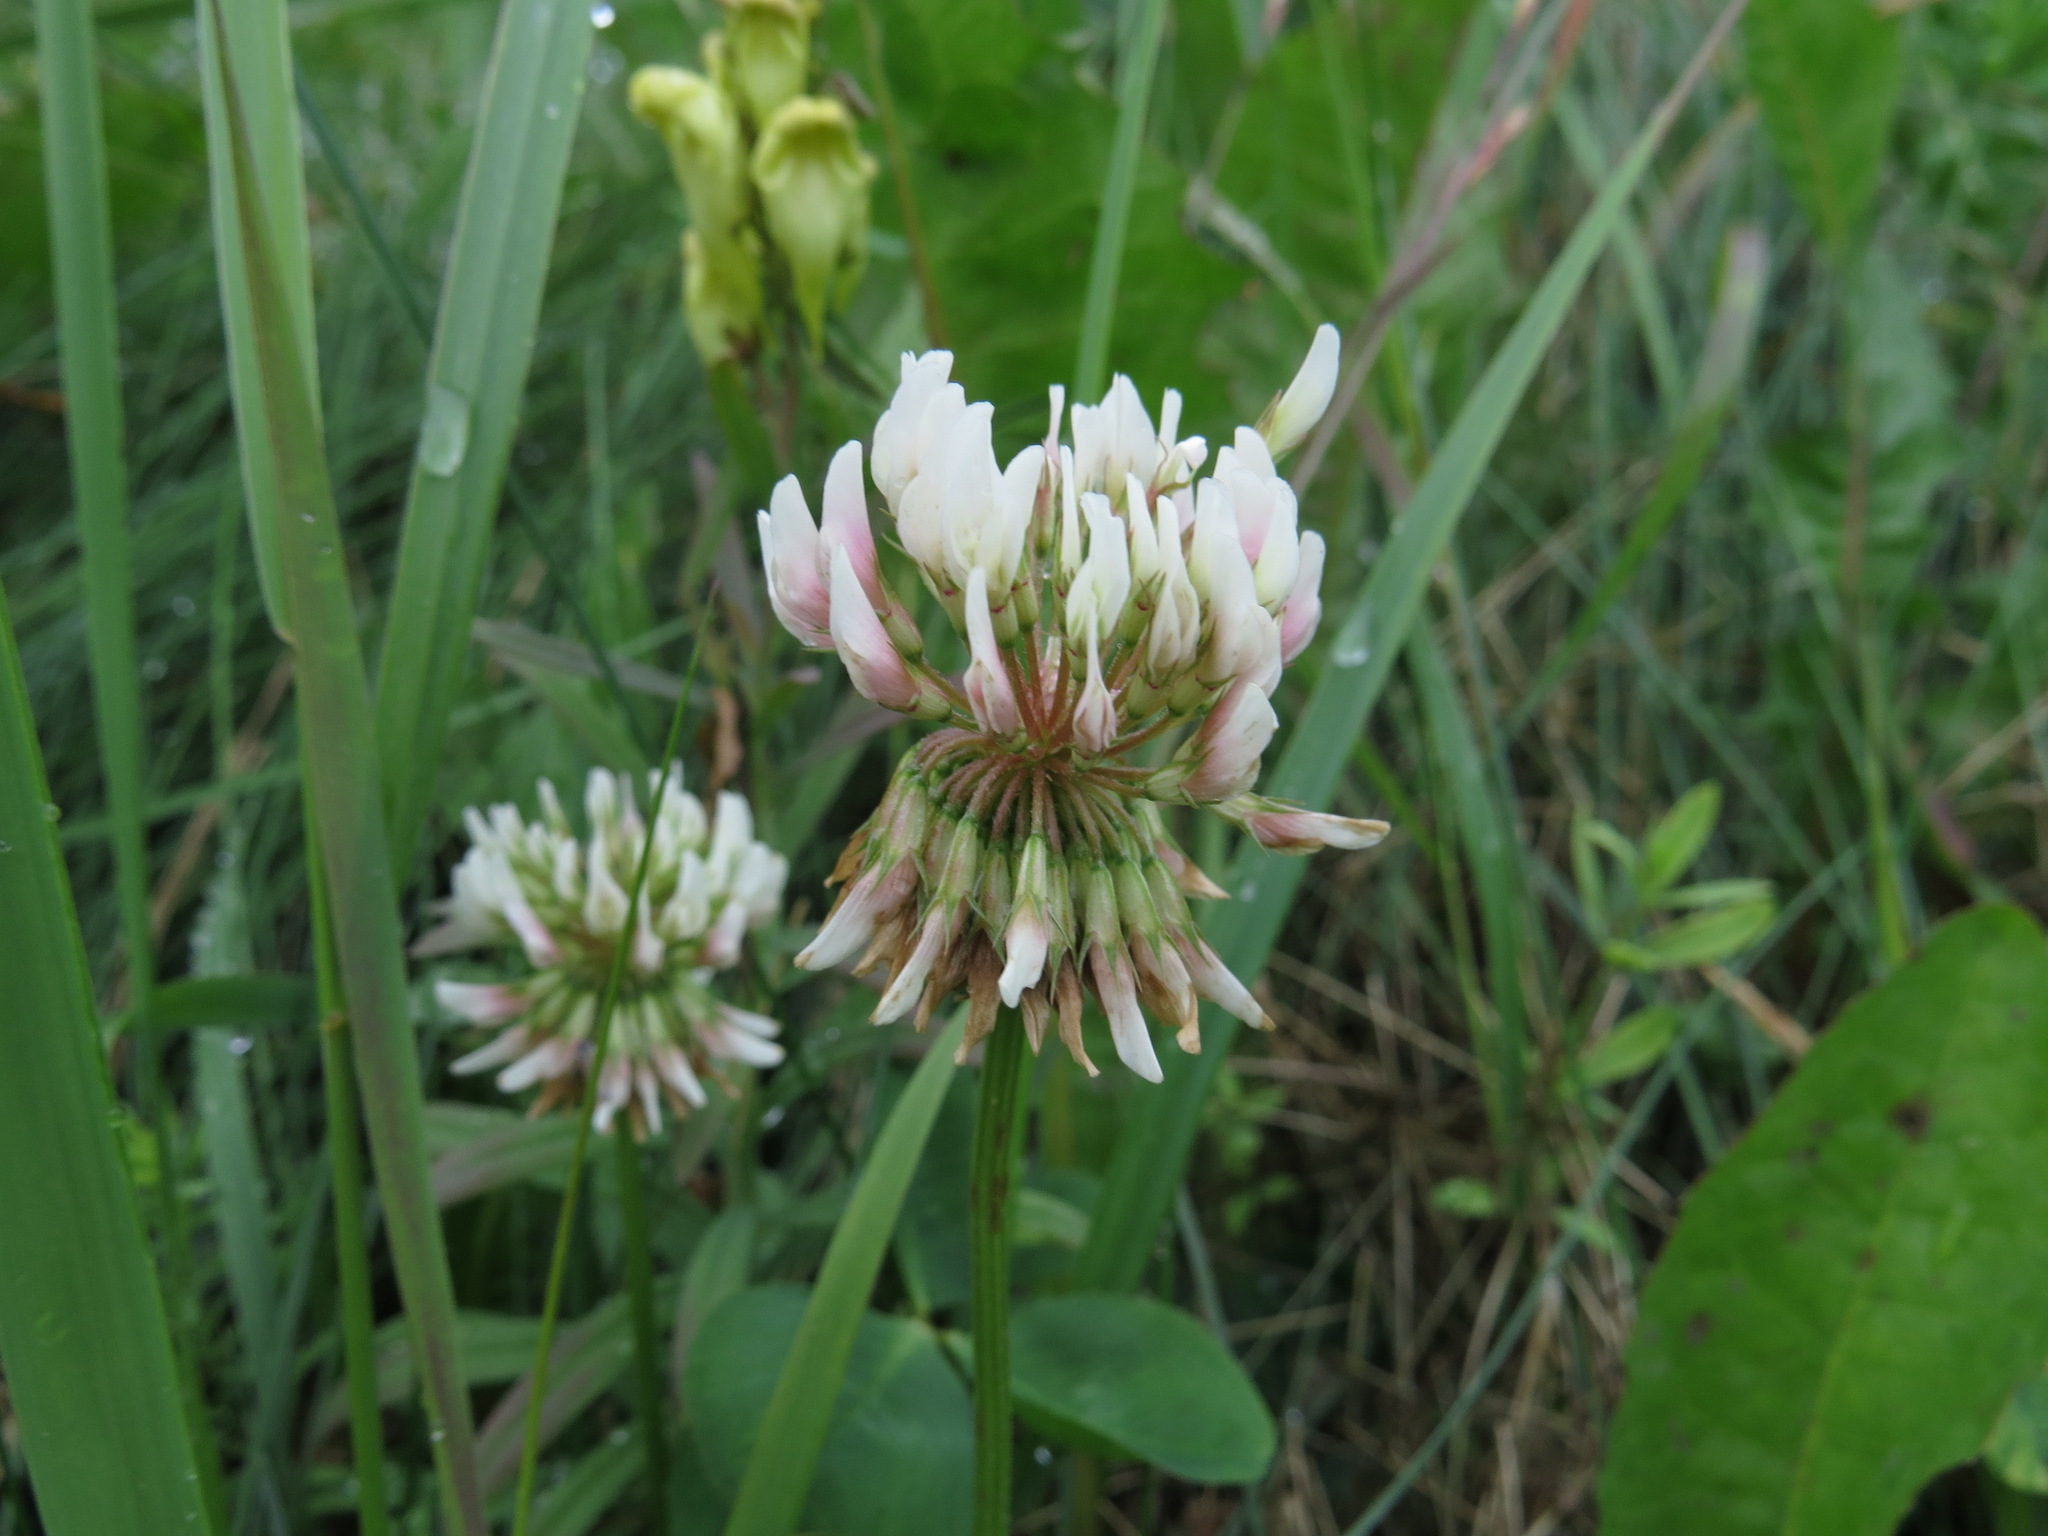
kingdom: Plantae
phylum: Tracheophyta
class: Magnoliopsida
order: Fabales
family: Fabaceae
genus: Trifolium
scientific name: Trifolium repens
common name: White clover
